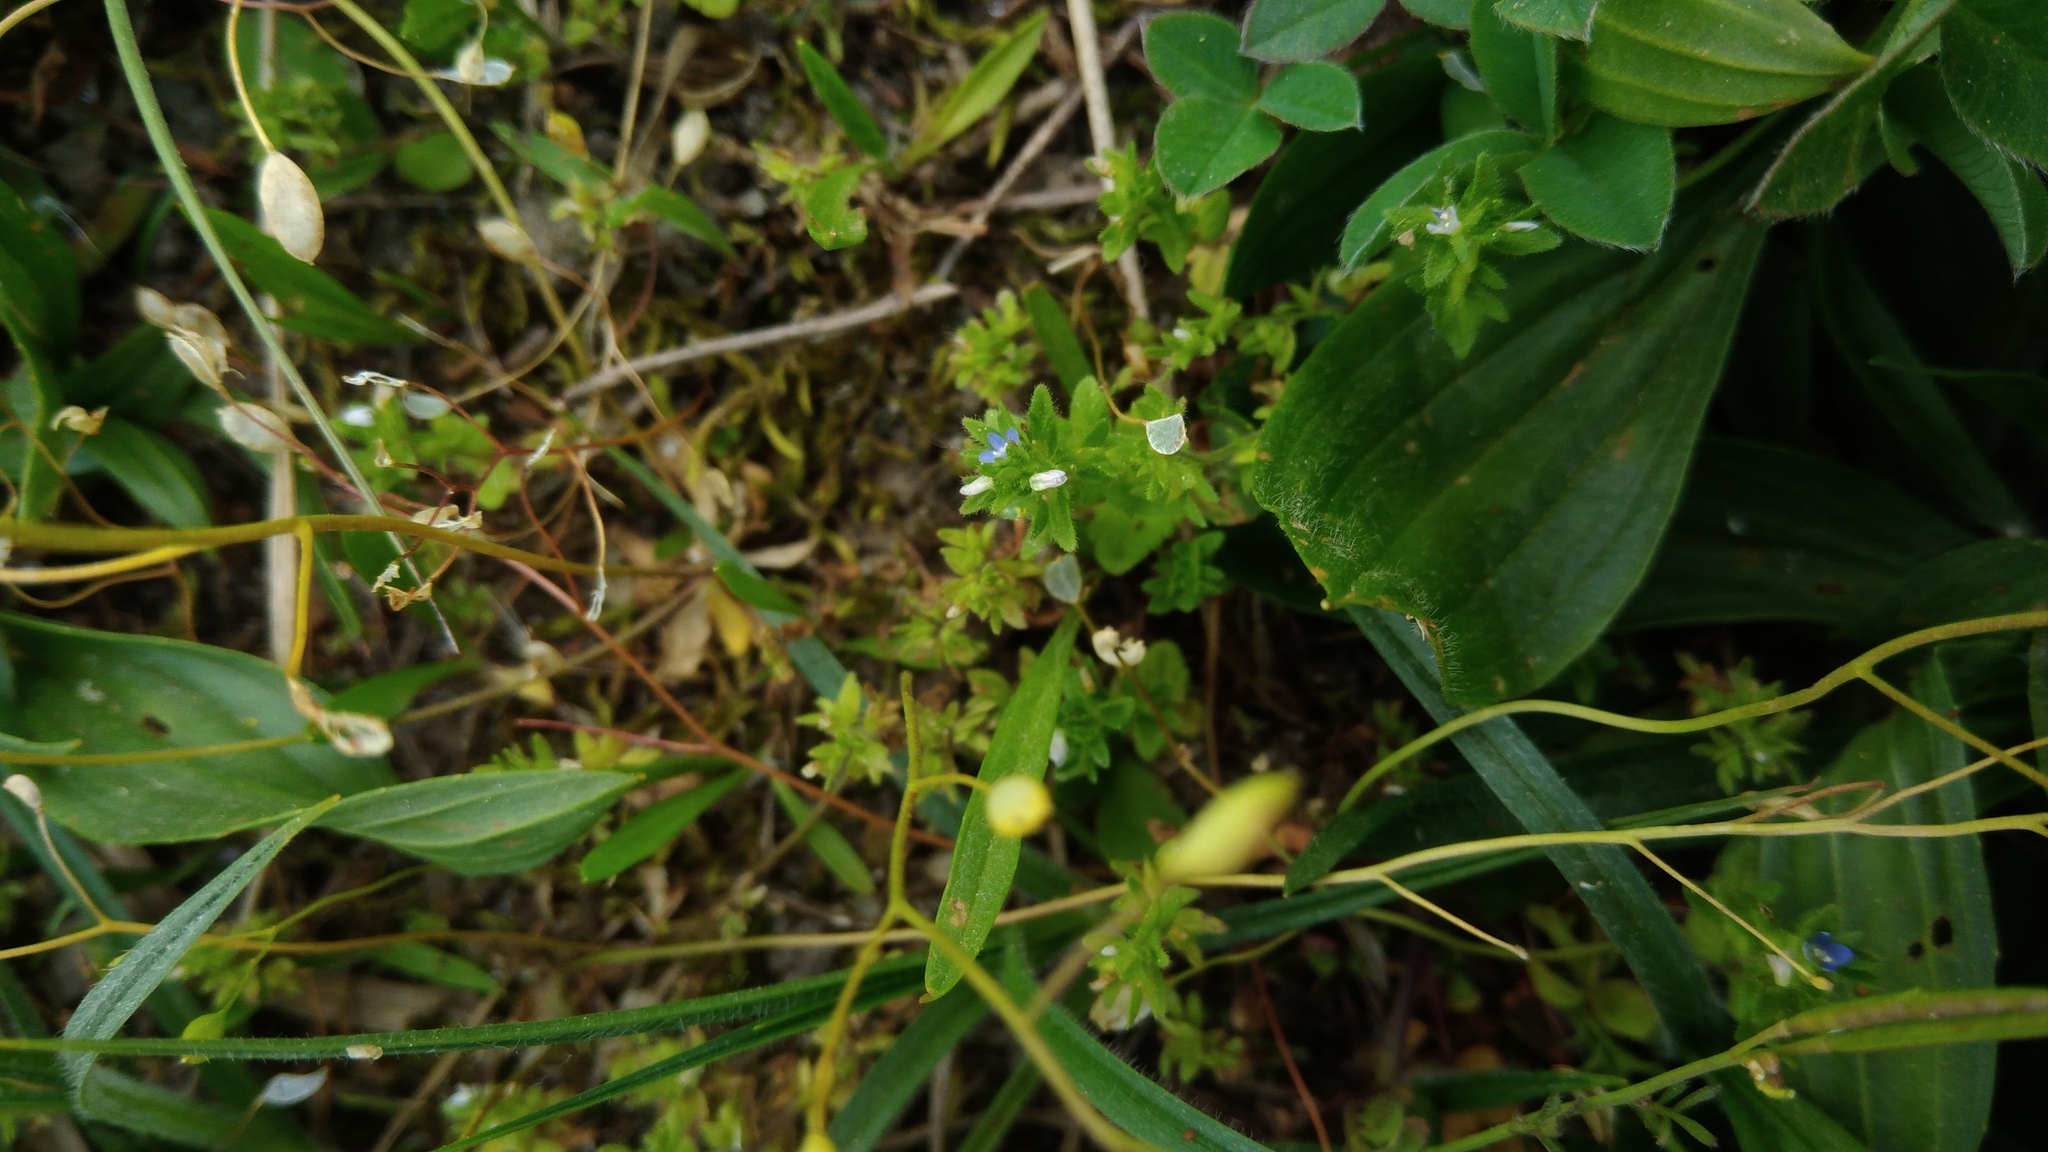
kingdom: Plantae
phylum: Tracheophyta
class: Magnoliopsida
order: Lamiales
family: Plantaginaceae
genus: Veronica
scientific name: Veronica arvensis
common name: Corn speedwell
